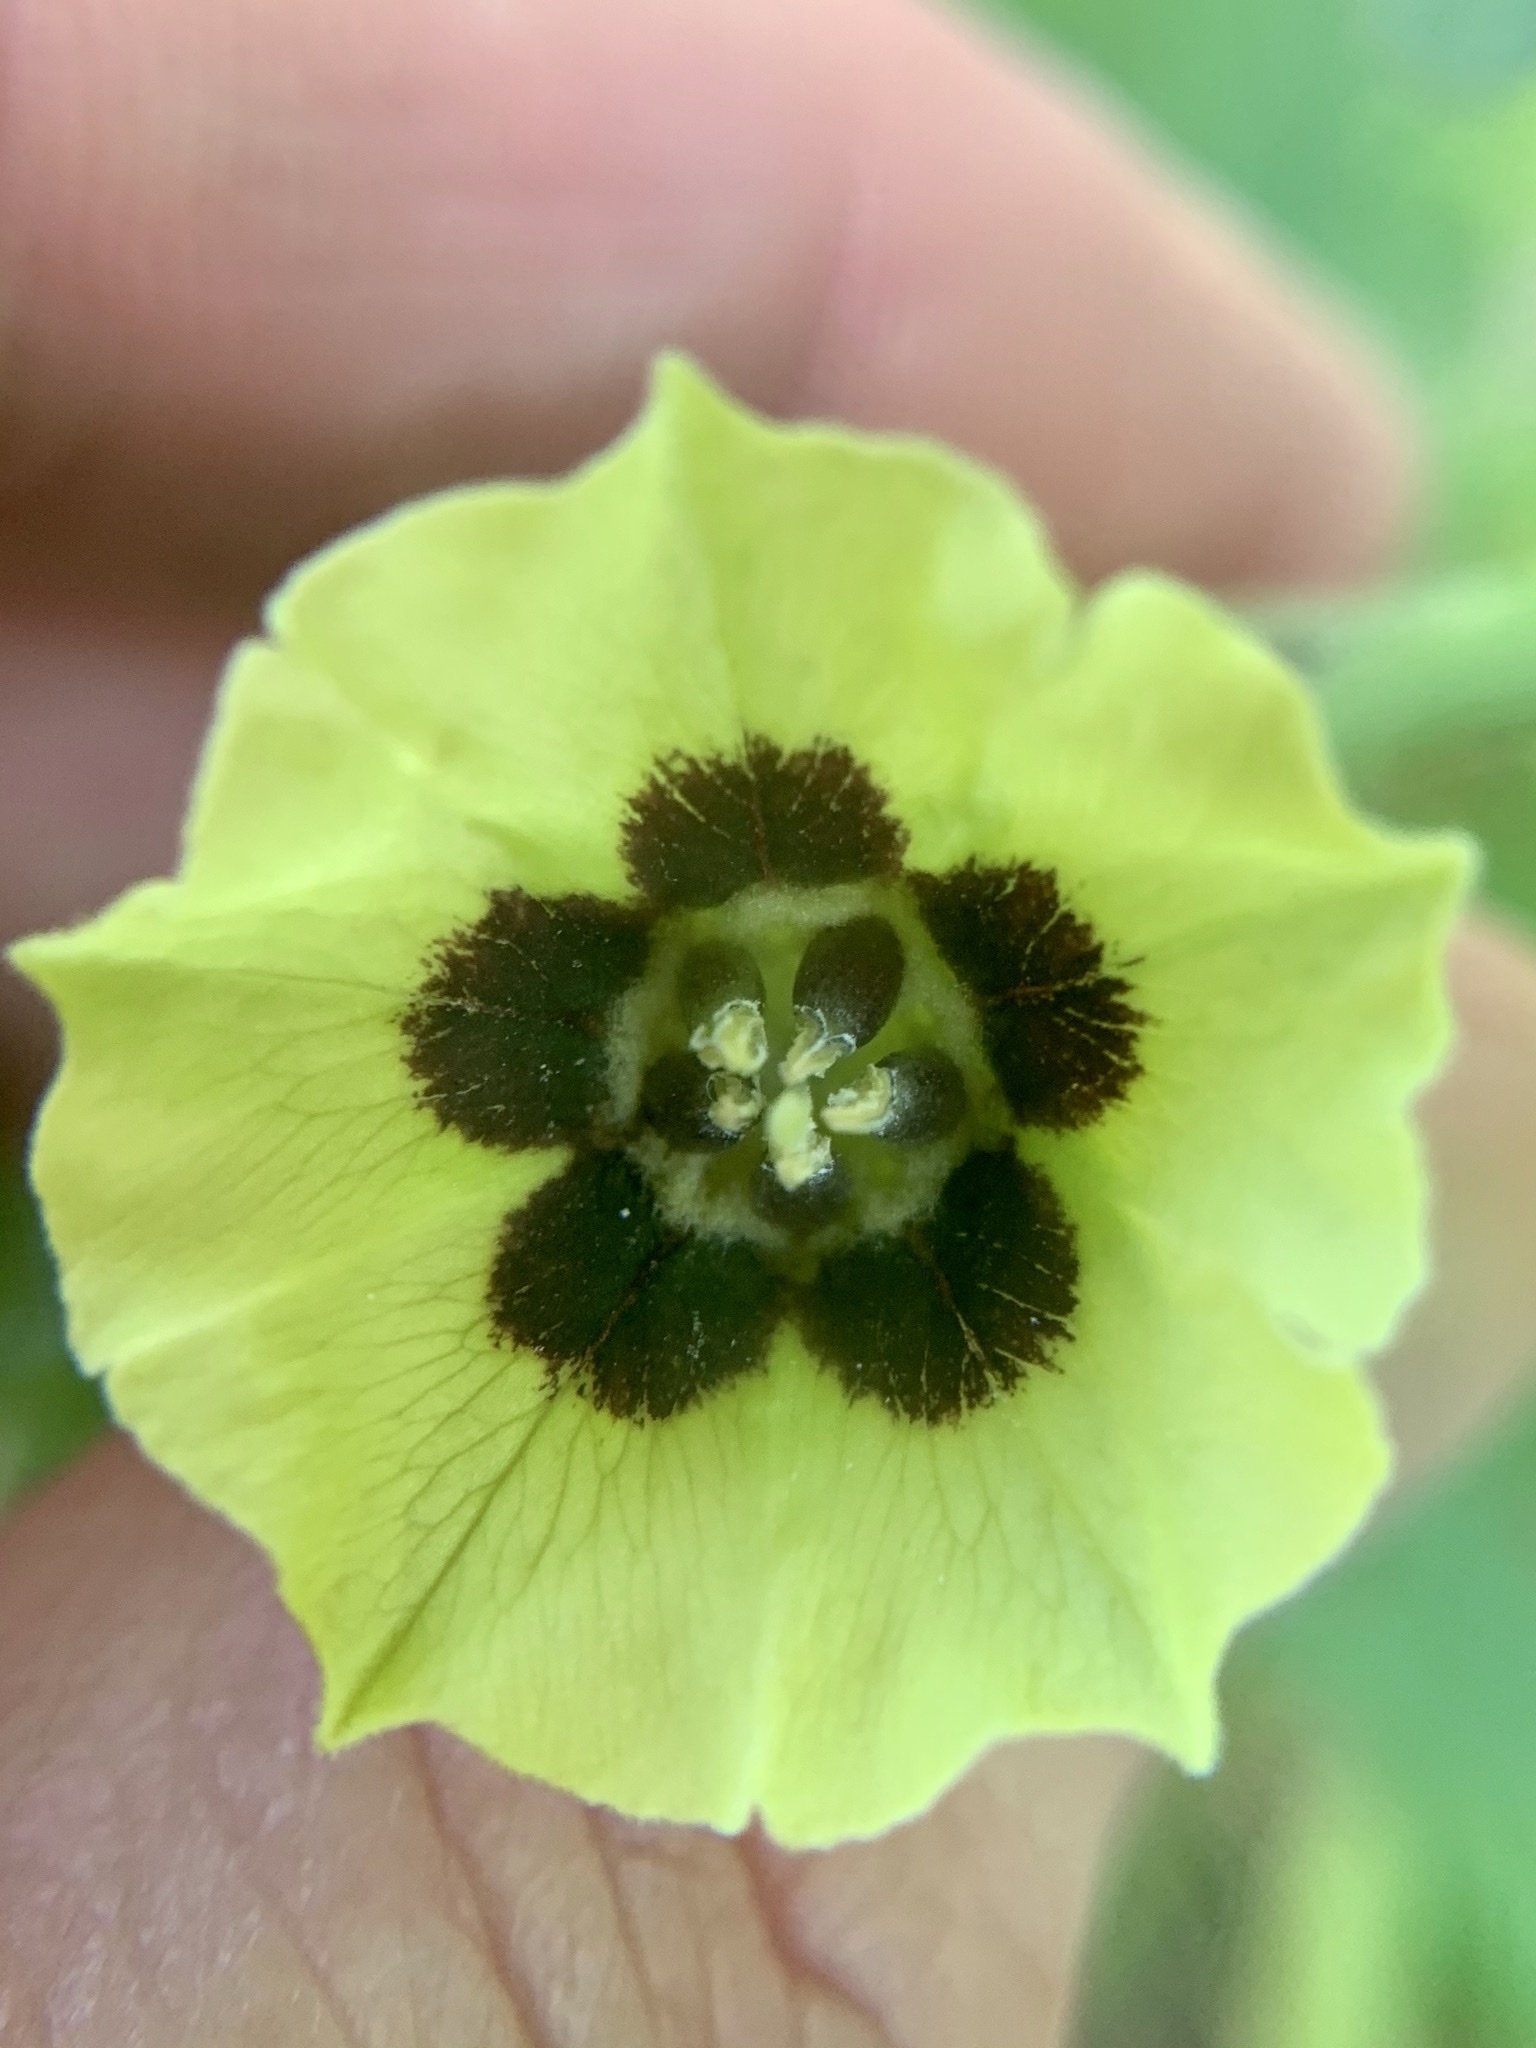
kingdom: Plantae
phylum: Tracheophyta
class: Magnoliopsida
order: Solanales
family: Solanaceae
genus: Physalis
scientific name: Physalis longifolia
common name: Common ground-cherry
